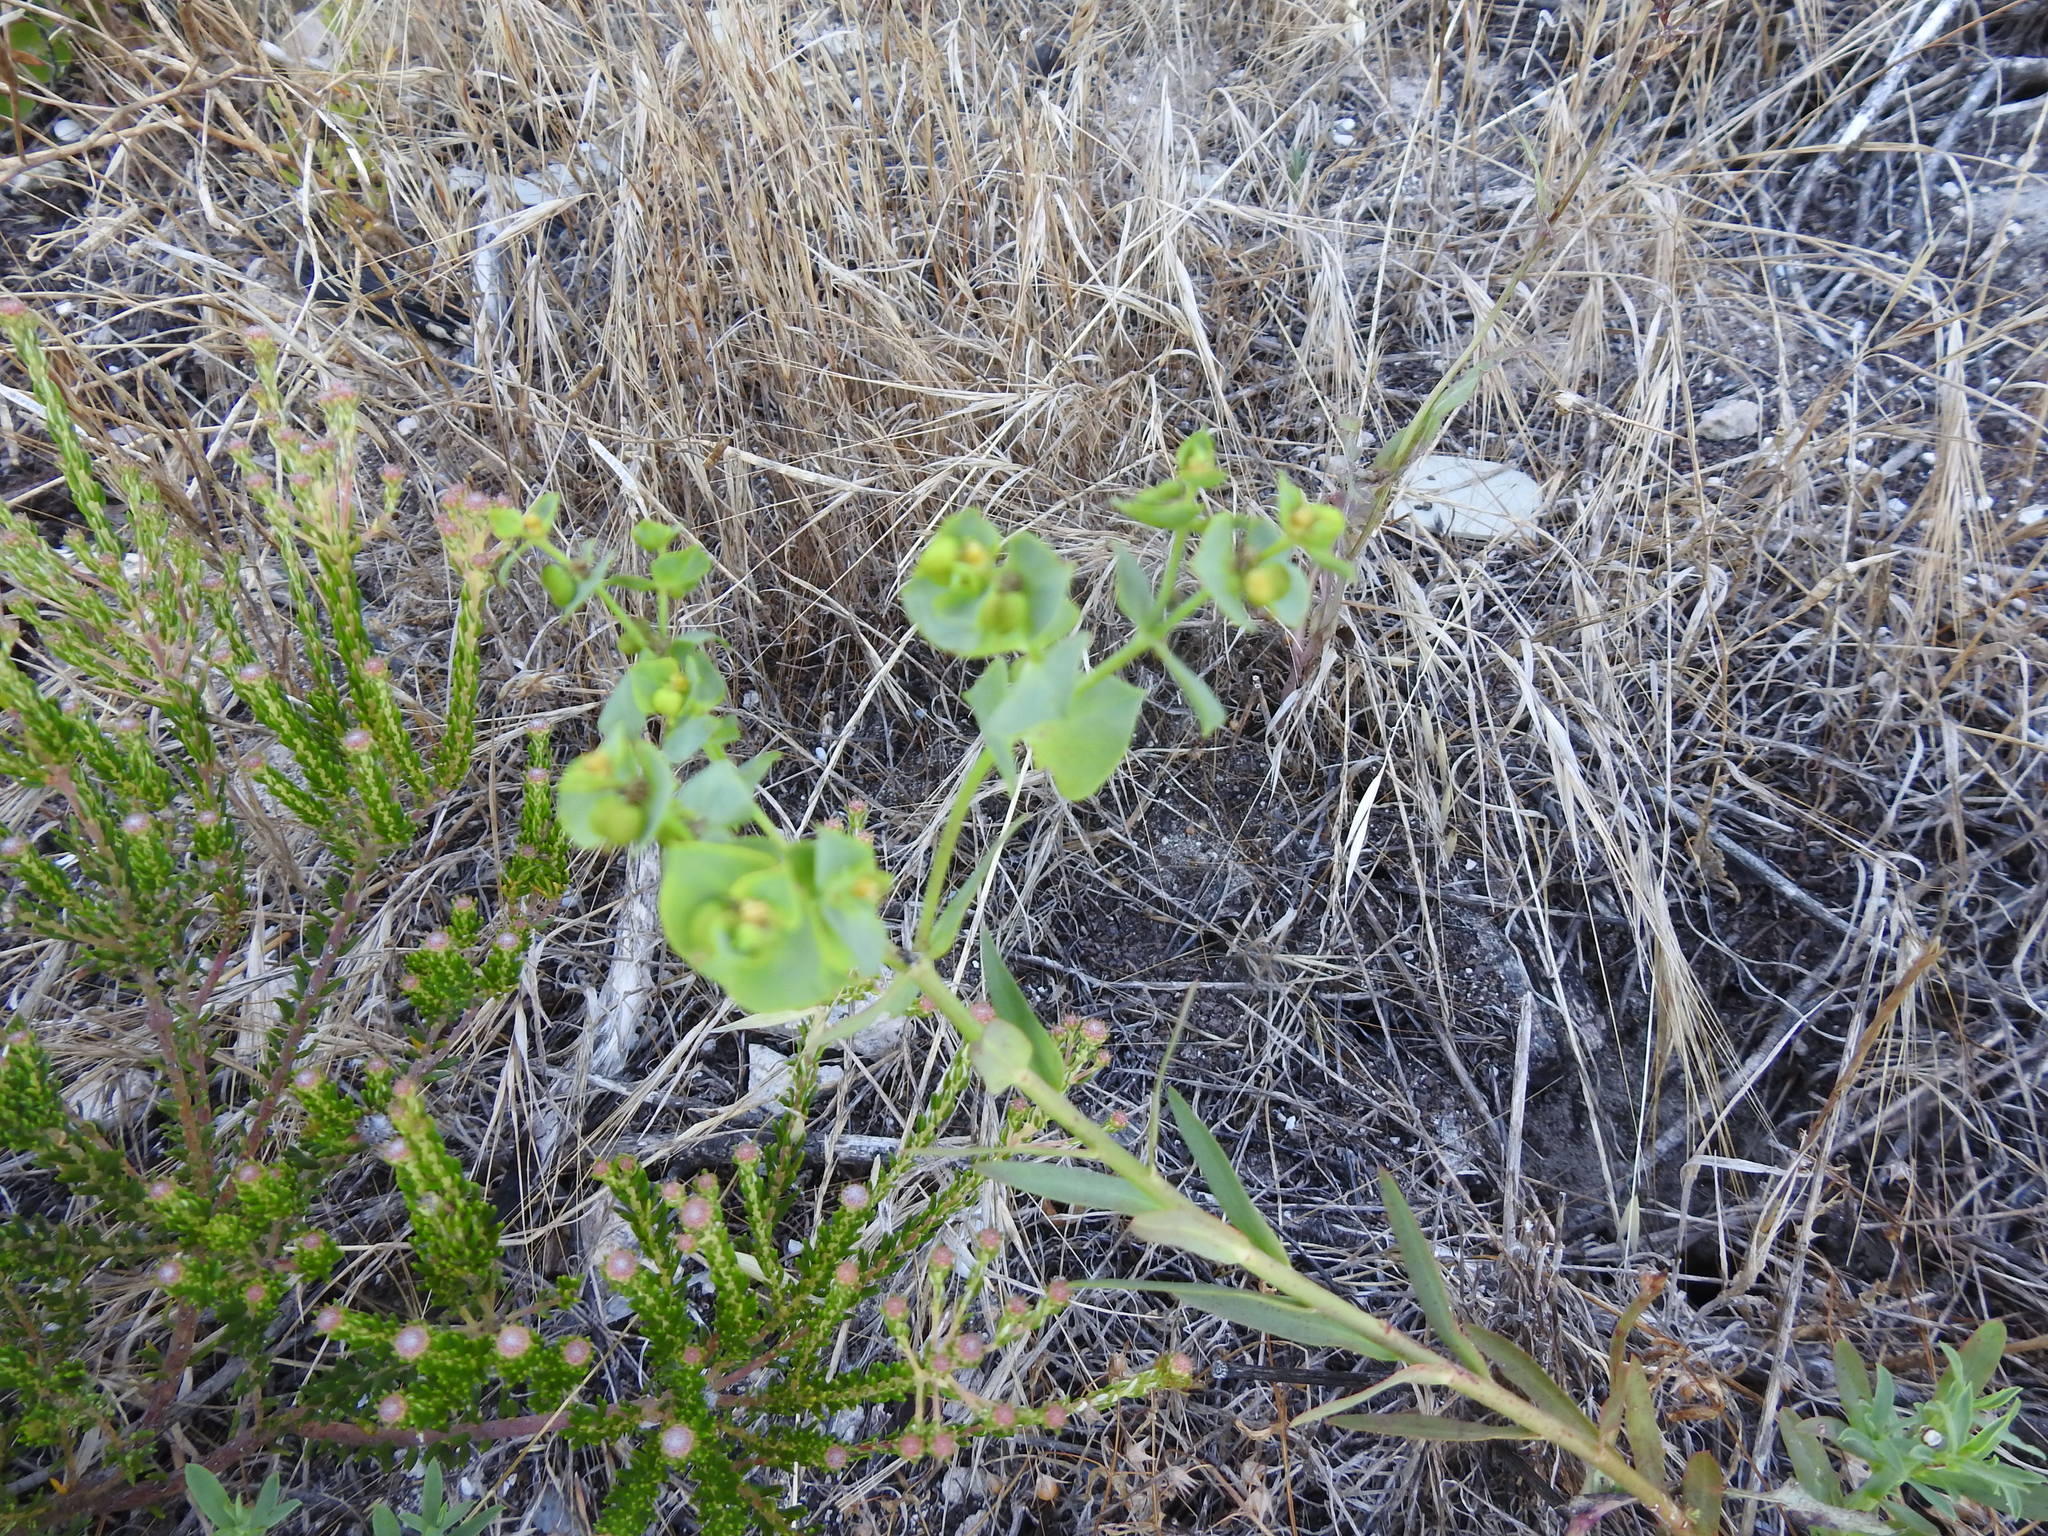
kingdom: Plantae
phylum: Tracheophyta
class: Magnoliopsida
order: Malpighiales
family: Euphorbiaceae
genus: Euphorbia
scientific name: Euphorbia terracina
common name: Geraldton carnation weed
